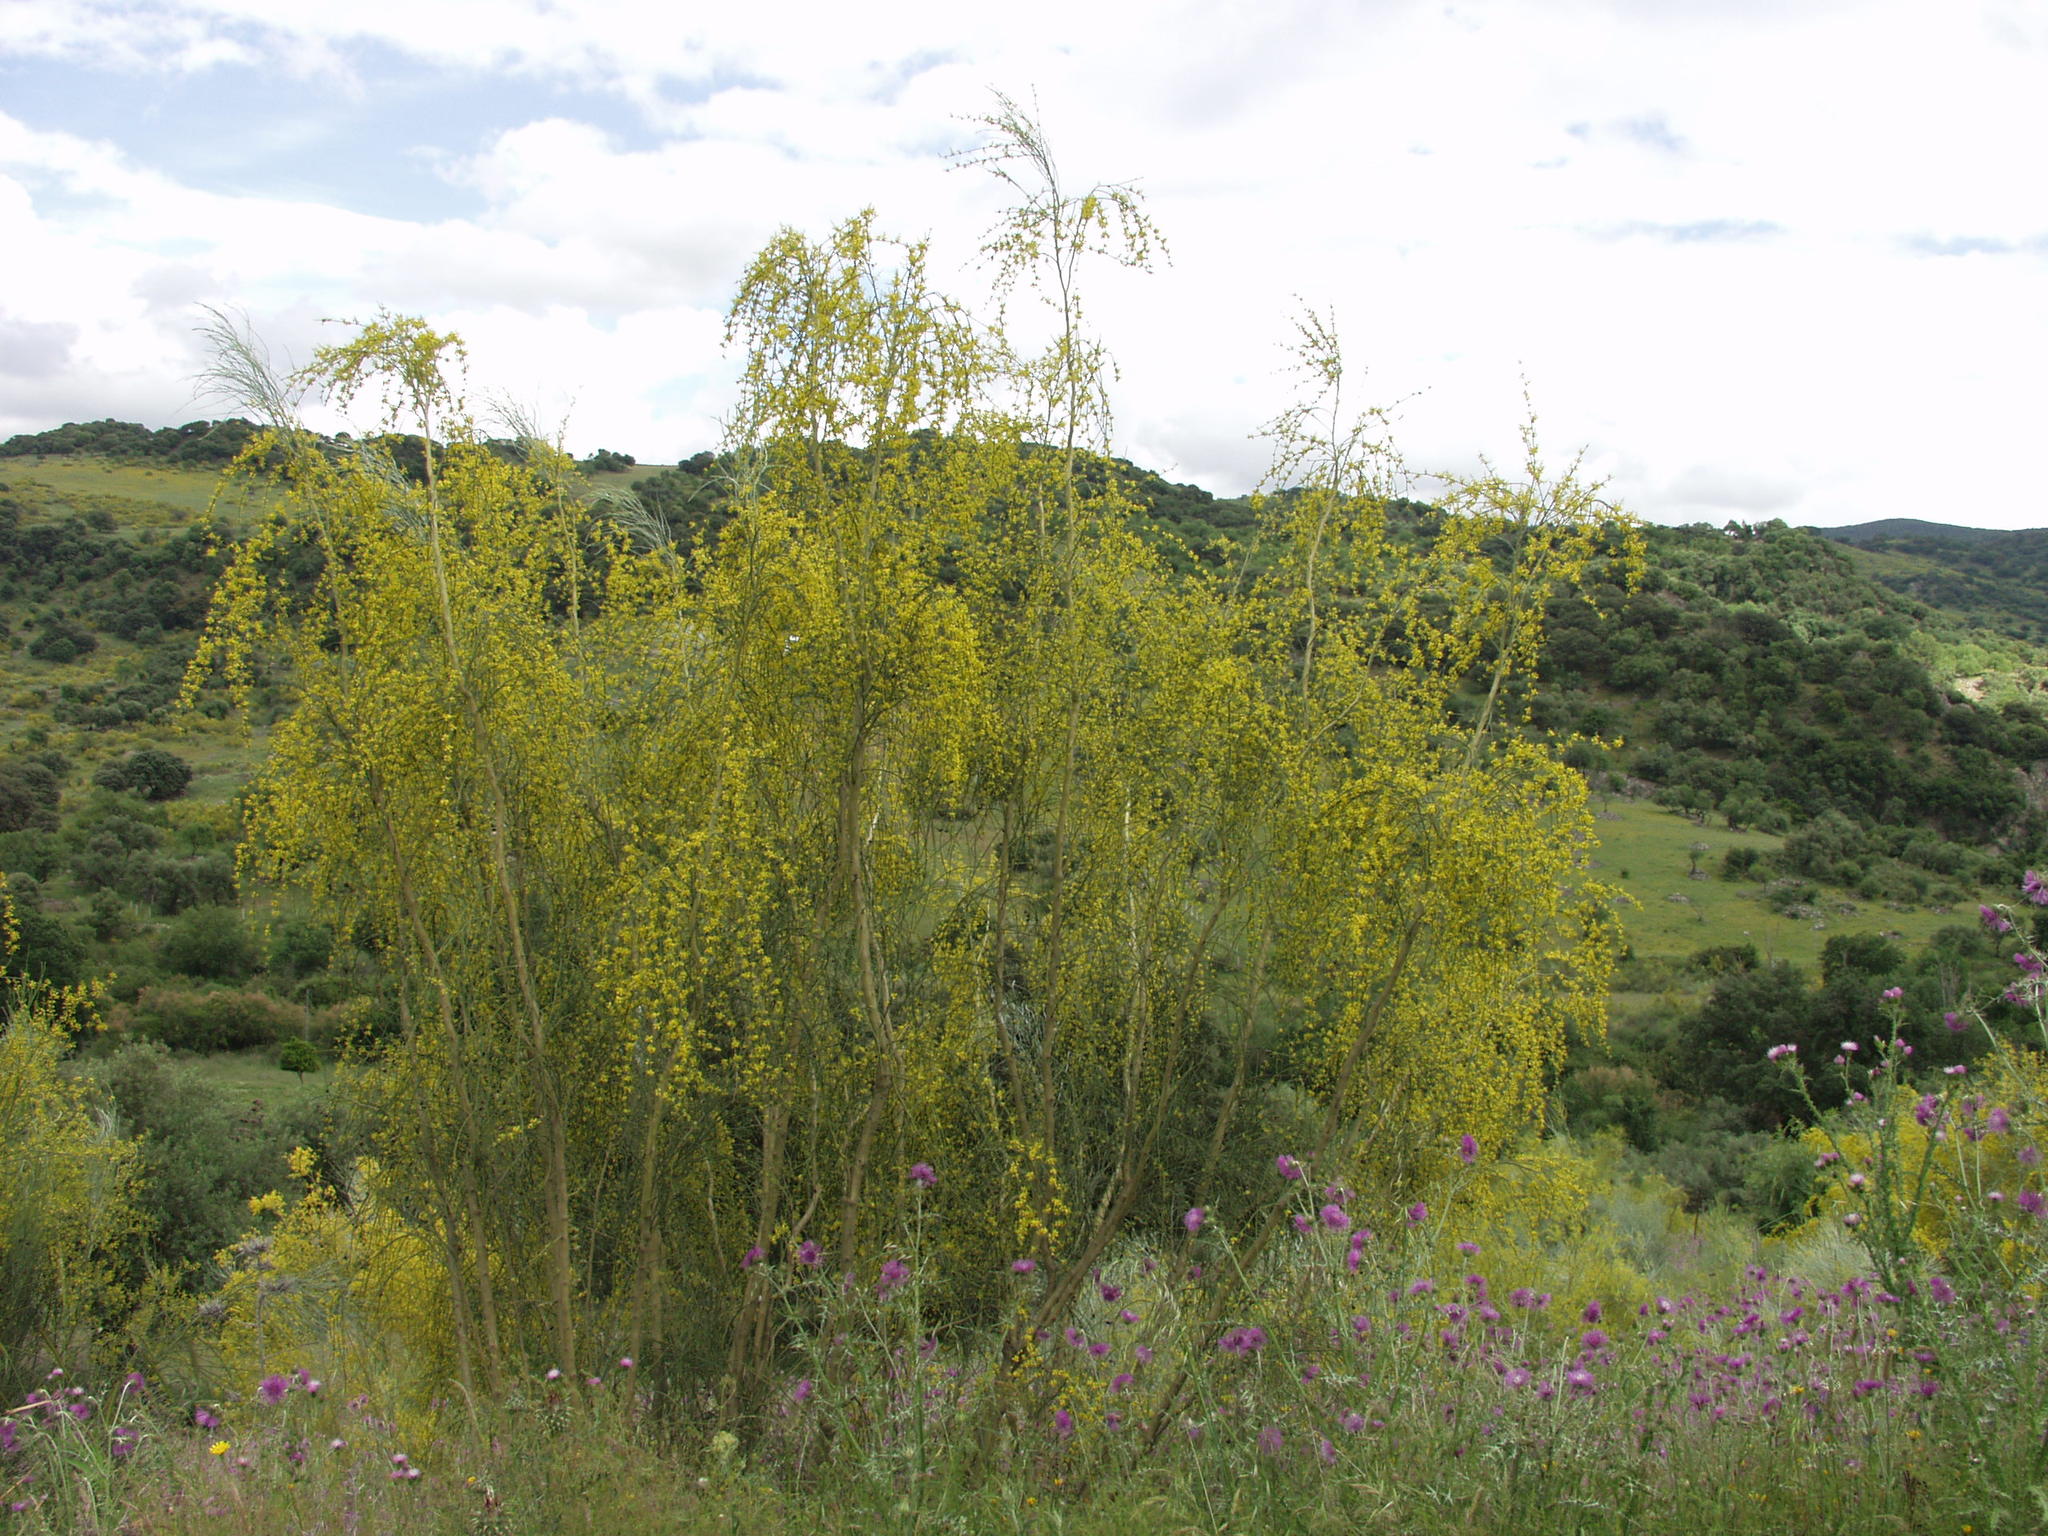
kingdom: Plantae
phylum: Tracheophyta
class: Magnoliopsida
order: Fabales
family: Fabaceae
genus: Retama
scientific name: Retama sphaerocarpa
